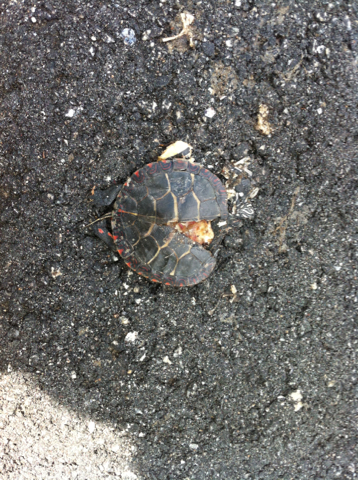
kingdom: Animalia
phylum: Chordata
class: Testudines
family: Emydidae
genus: Chrysemys
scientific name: Chrysemys picta
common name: Painted turtle
